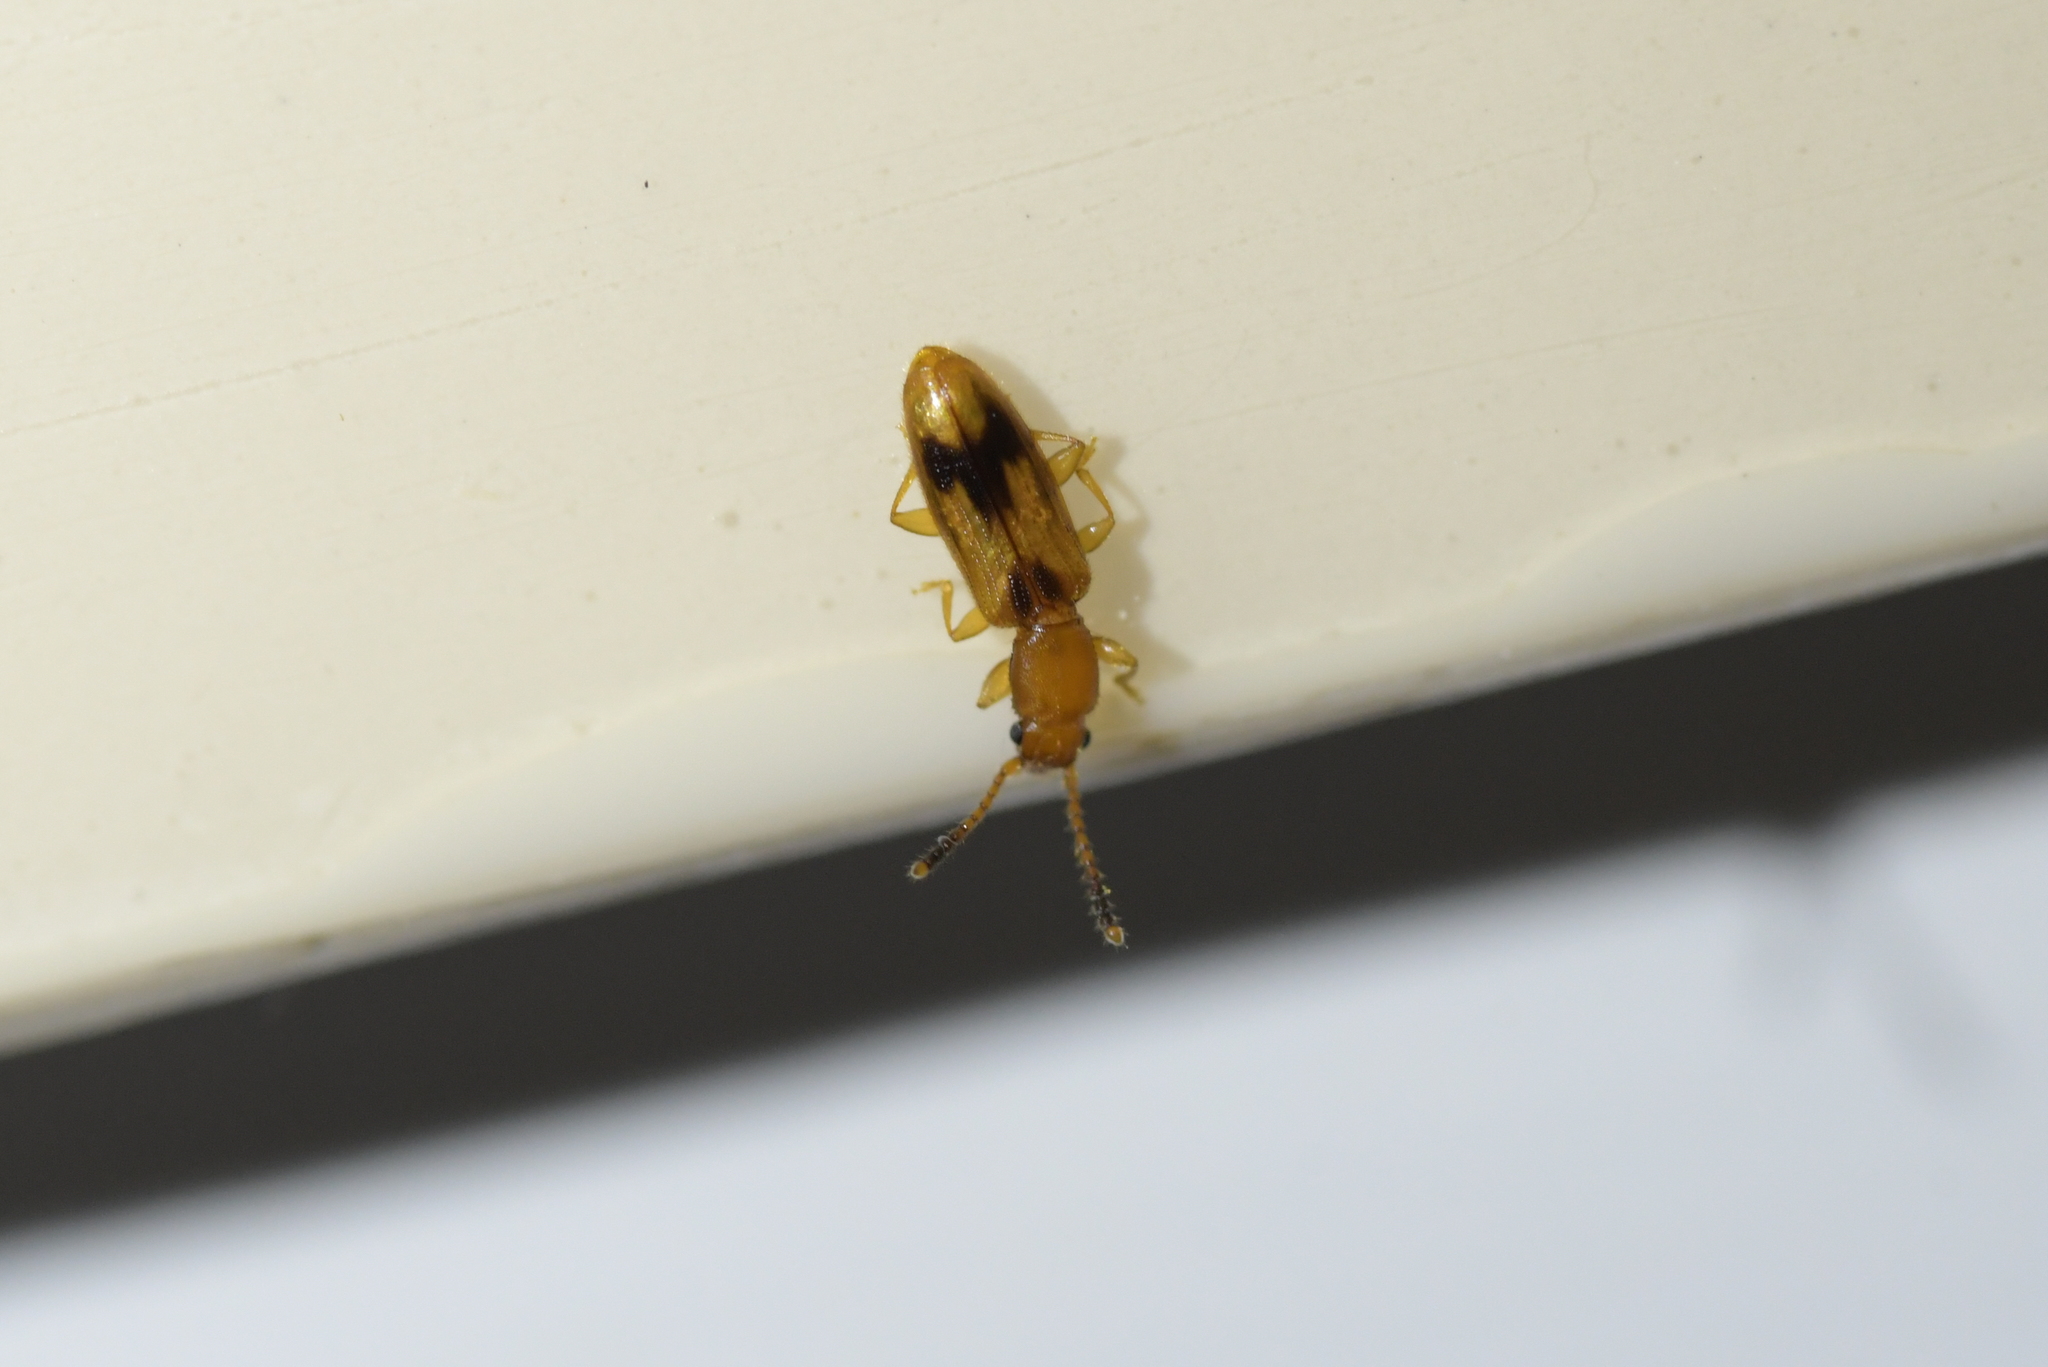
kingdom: Animalia
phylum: Arthropoda
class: Insecta
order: Coleoptera
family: Silvanidae
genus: Cryptamorpha
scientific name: Cryptamorpha desjardinsi
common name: Cryptamorpha
